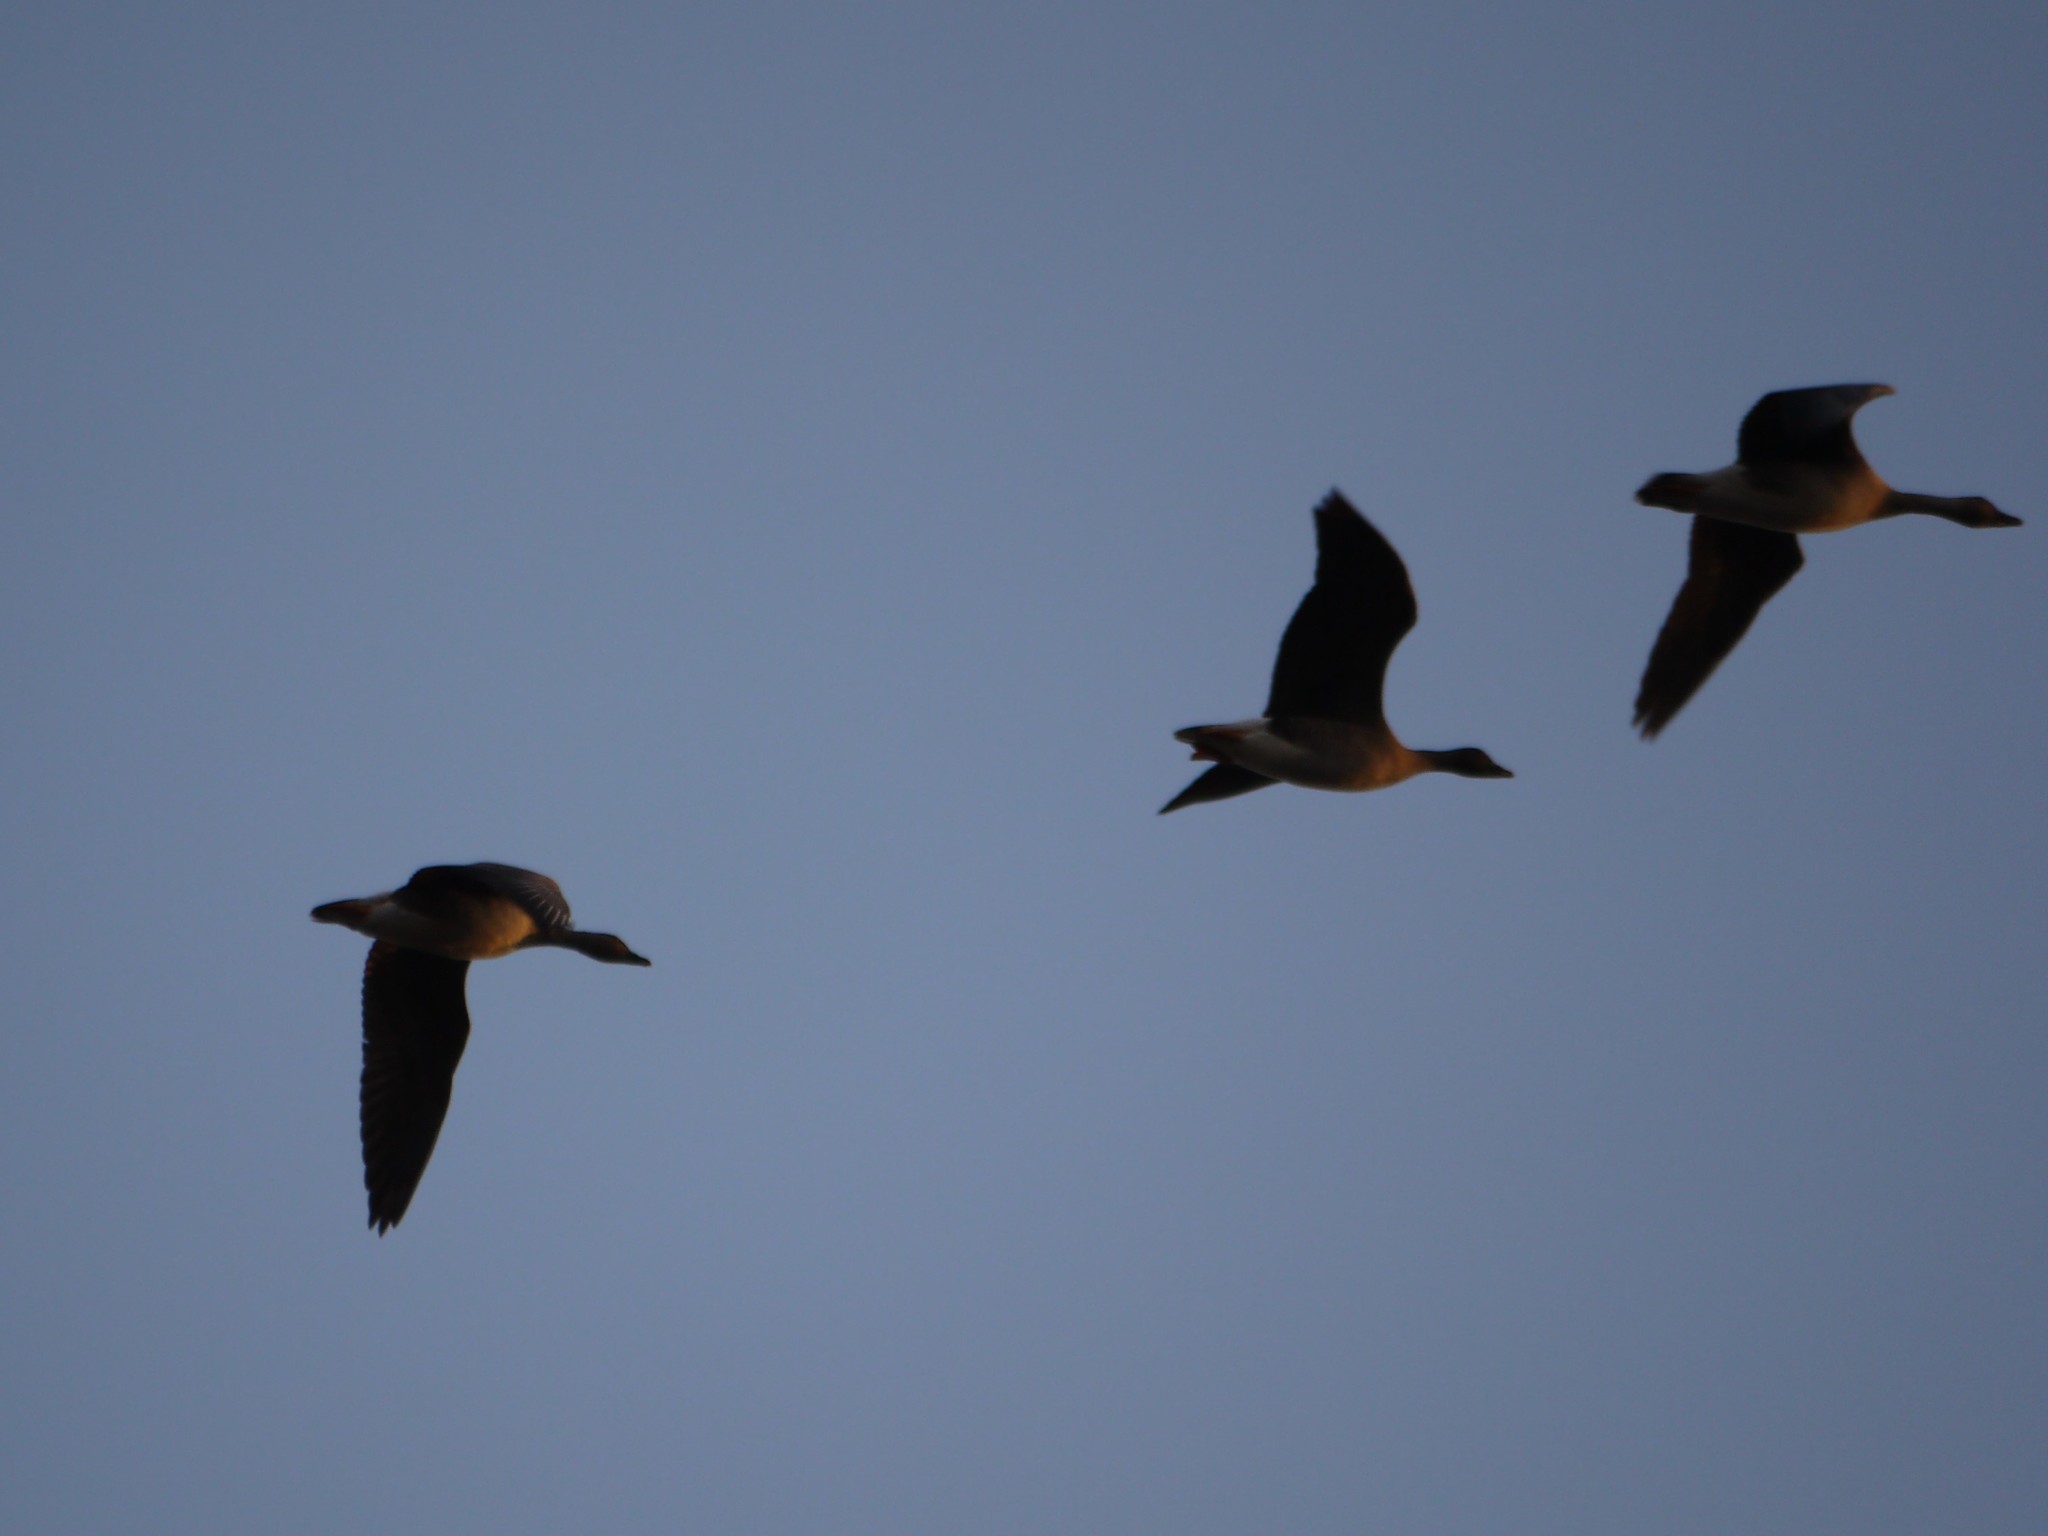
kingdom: Animalia
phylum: Chordata
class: Aves
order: Anseriformes
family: Anatidae
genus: Anser
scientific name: Anser serrirostris
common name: Tundra bean goose
